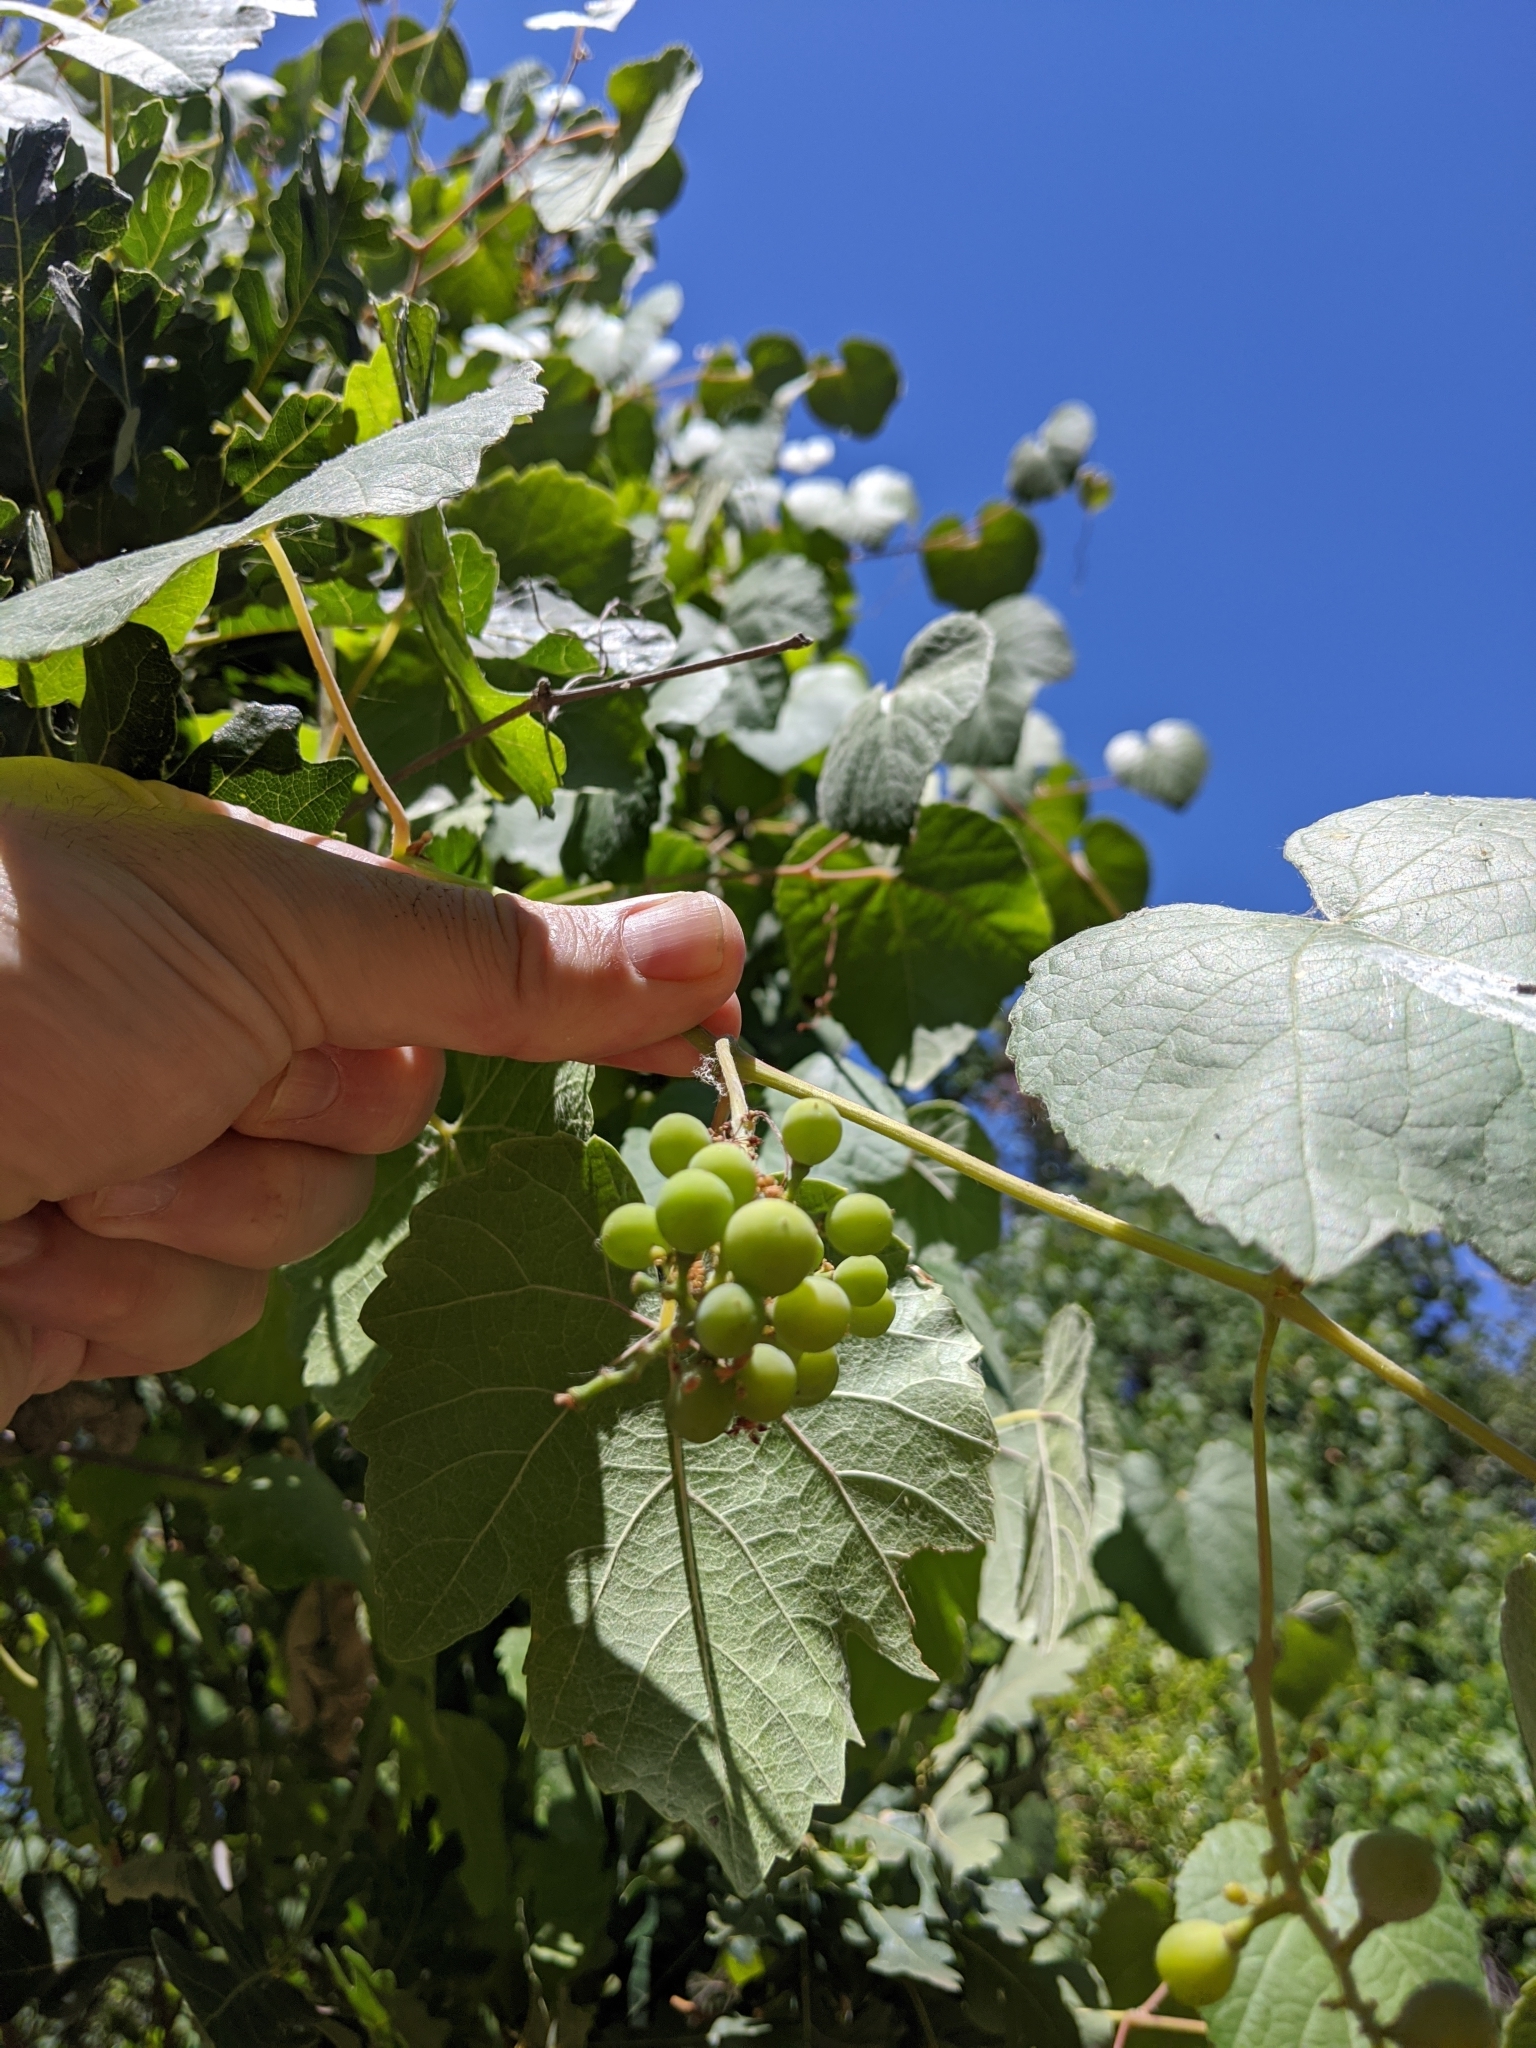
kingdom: Plantae
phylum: Tracheophyta
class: Magnoliopsida
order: Vitales
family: Vitaceae
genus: Vitis
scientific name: Vitis californica
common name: California wild grape
